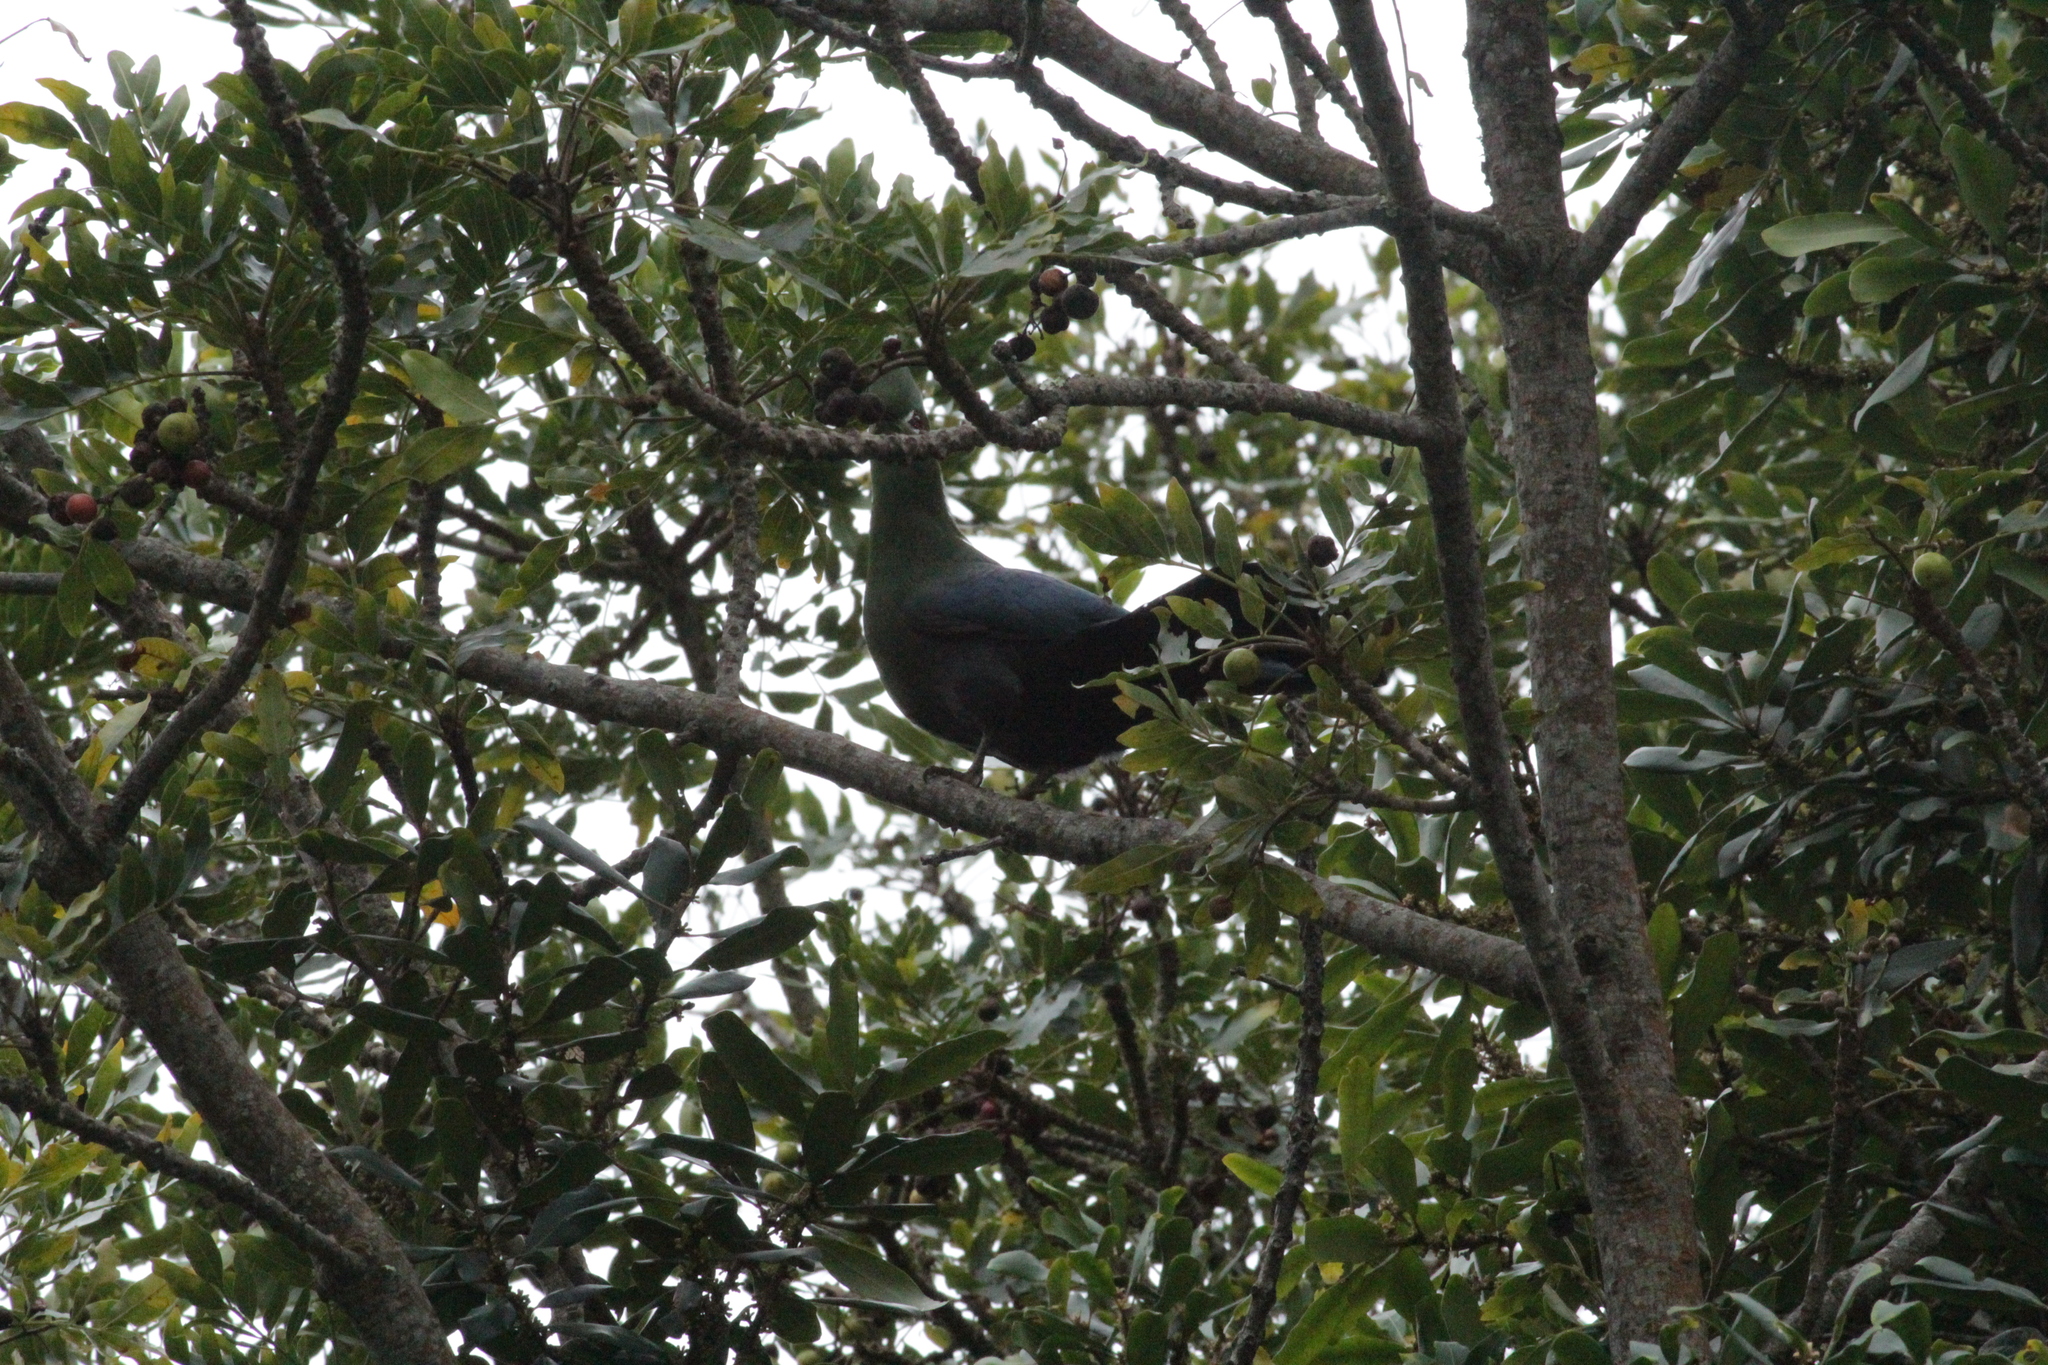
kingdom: Animalia
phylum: Chordata
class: Aves
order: Musophagiformes
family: Musophagidae
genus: Tauraco
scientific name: Tauraco corythaix
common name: Knysna turaco
